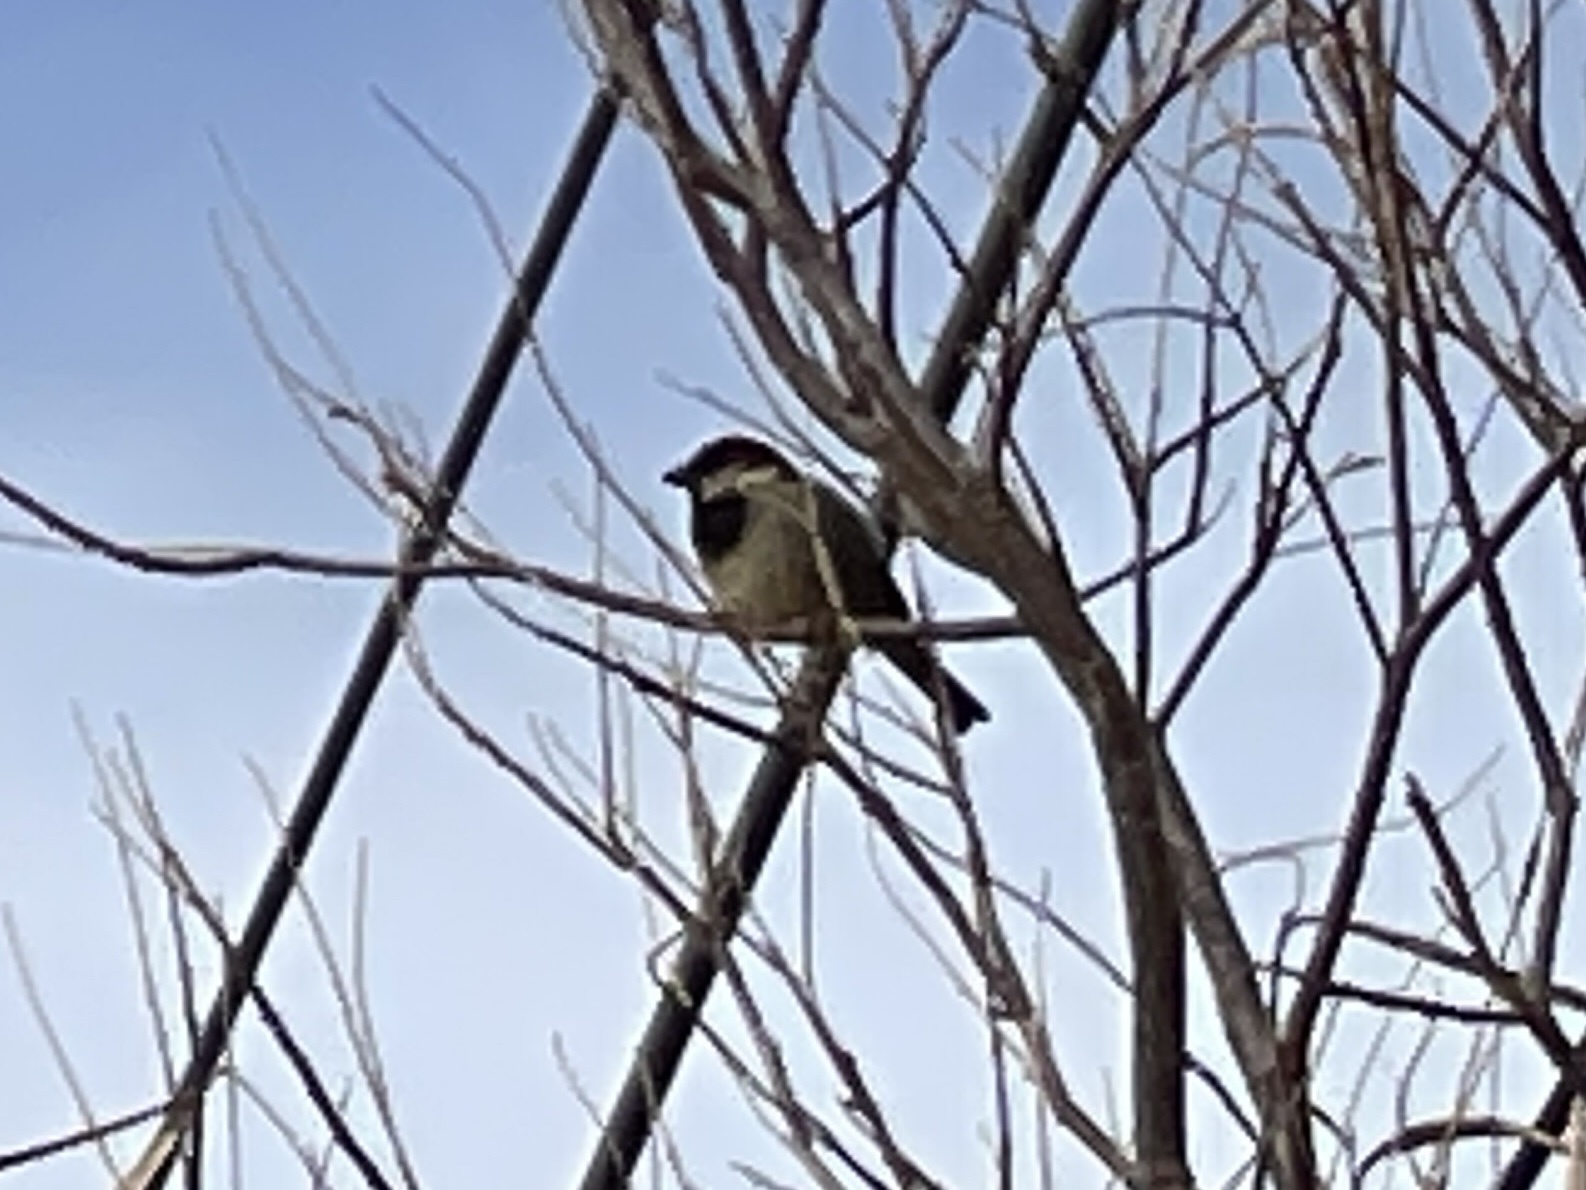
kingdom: Animalia
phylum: Chordata
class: Aves
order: Passeriformes
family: Passeridae
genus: Passer
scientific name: Passer domesticus
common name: House sparrow
